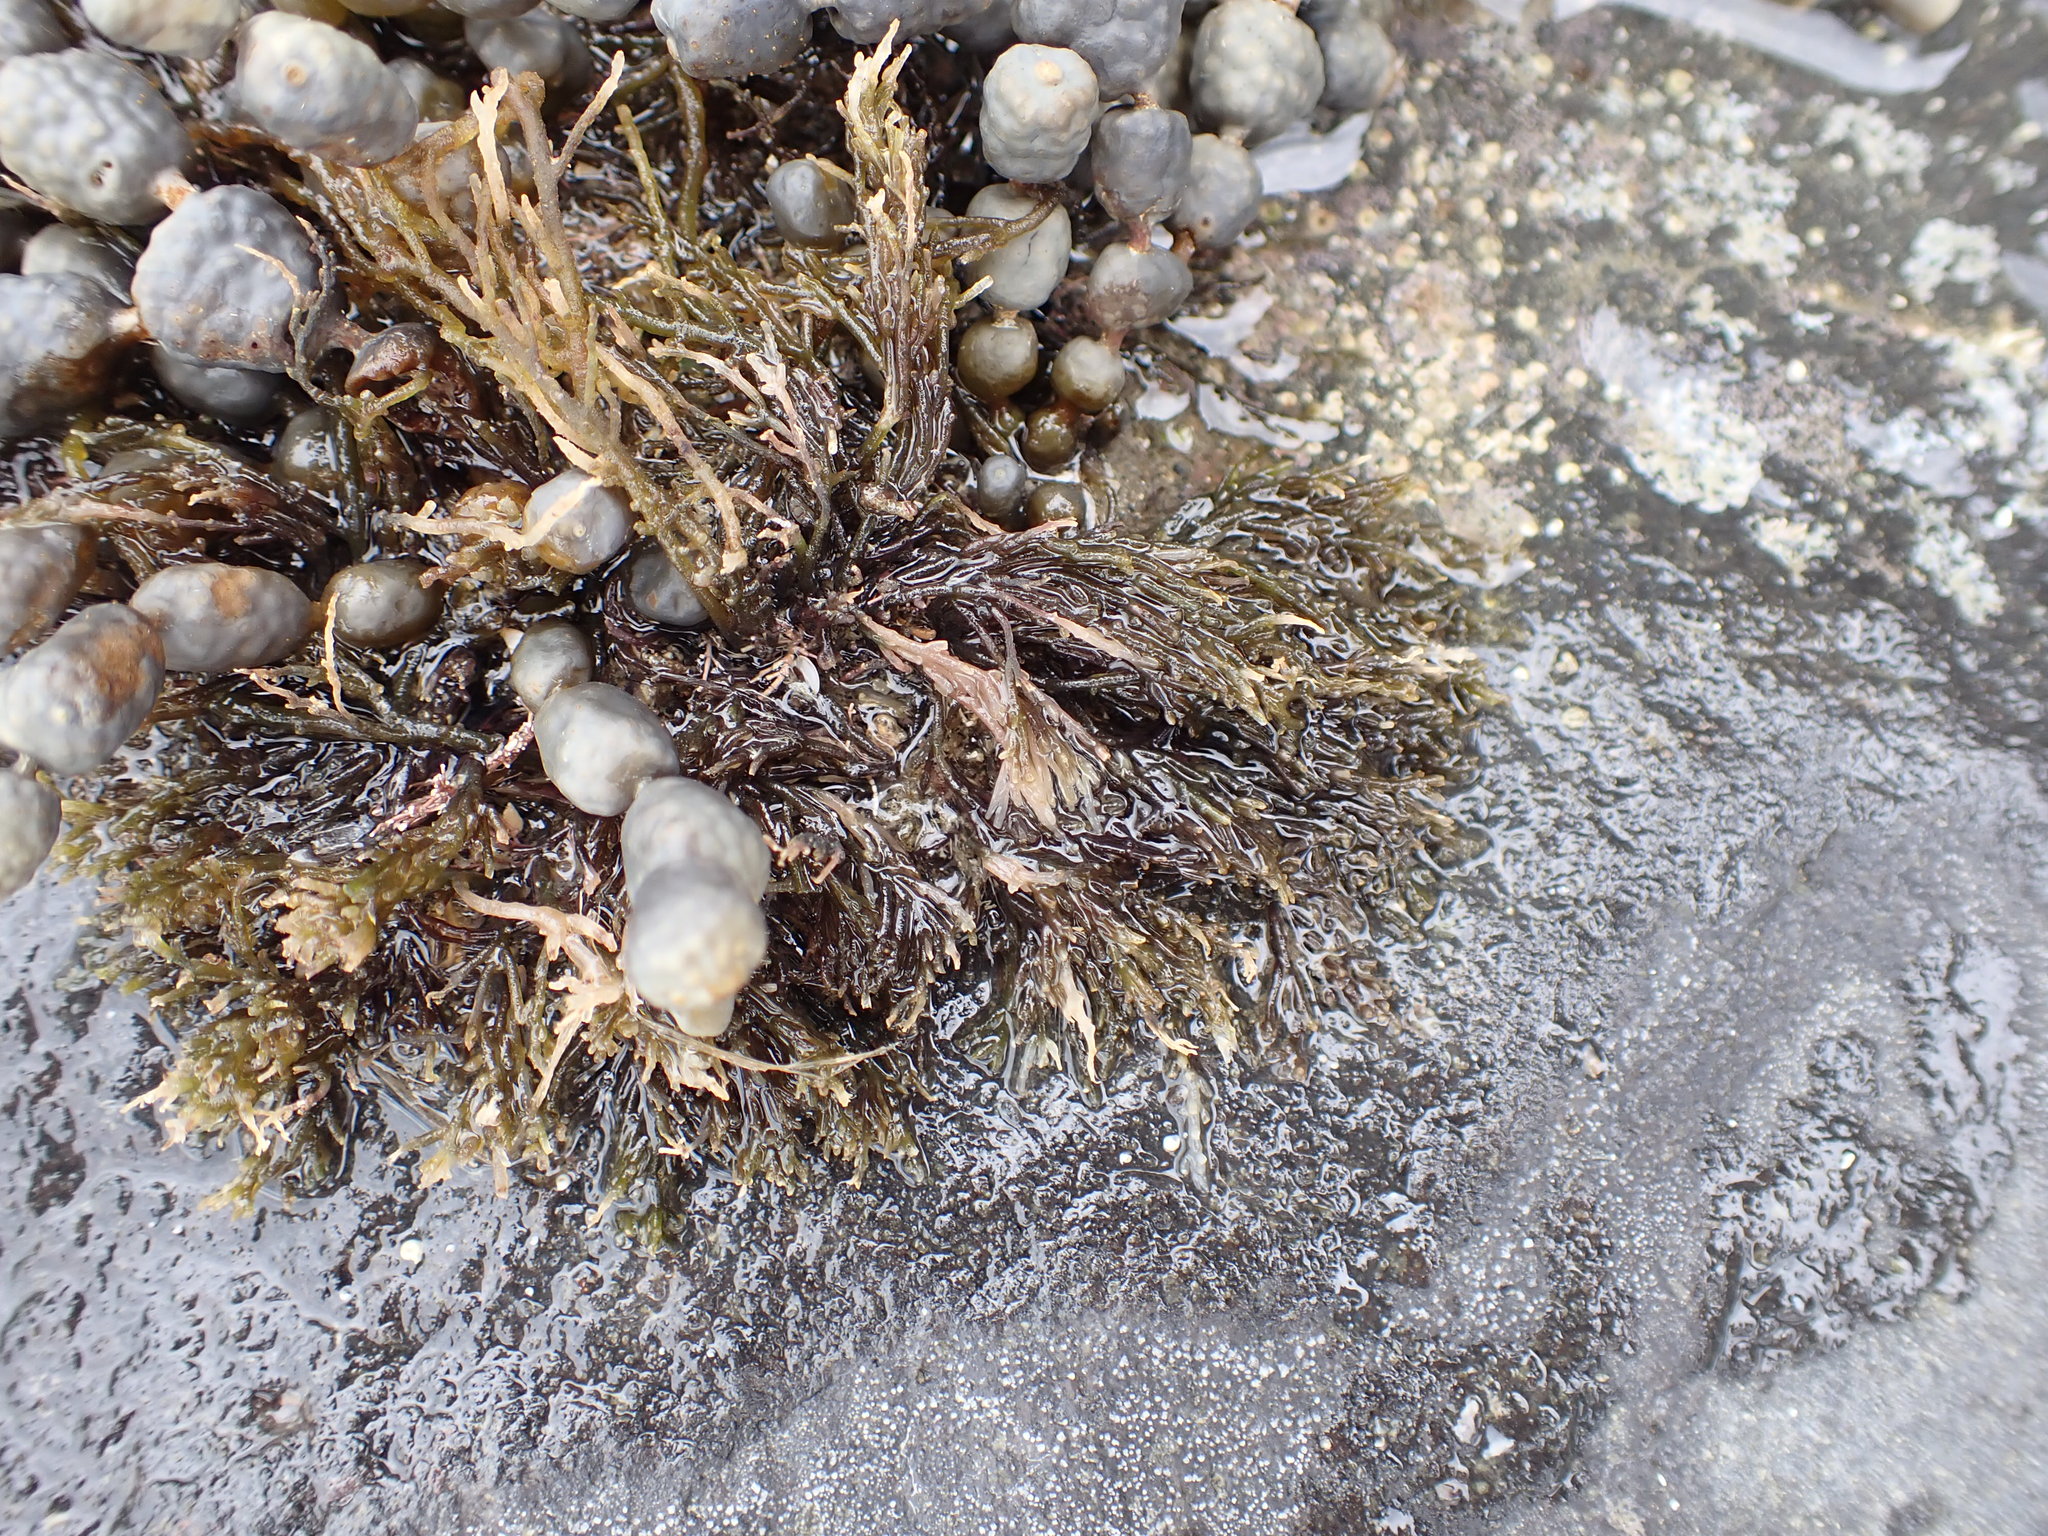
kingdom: Chromista
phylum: Ochrophyta
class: Phaeophyceae
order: Fucales
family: Notheiaceae
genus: Notheia
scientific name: Notheia anomala
